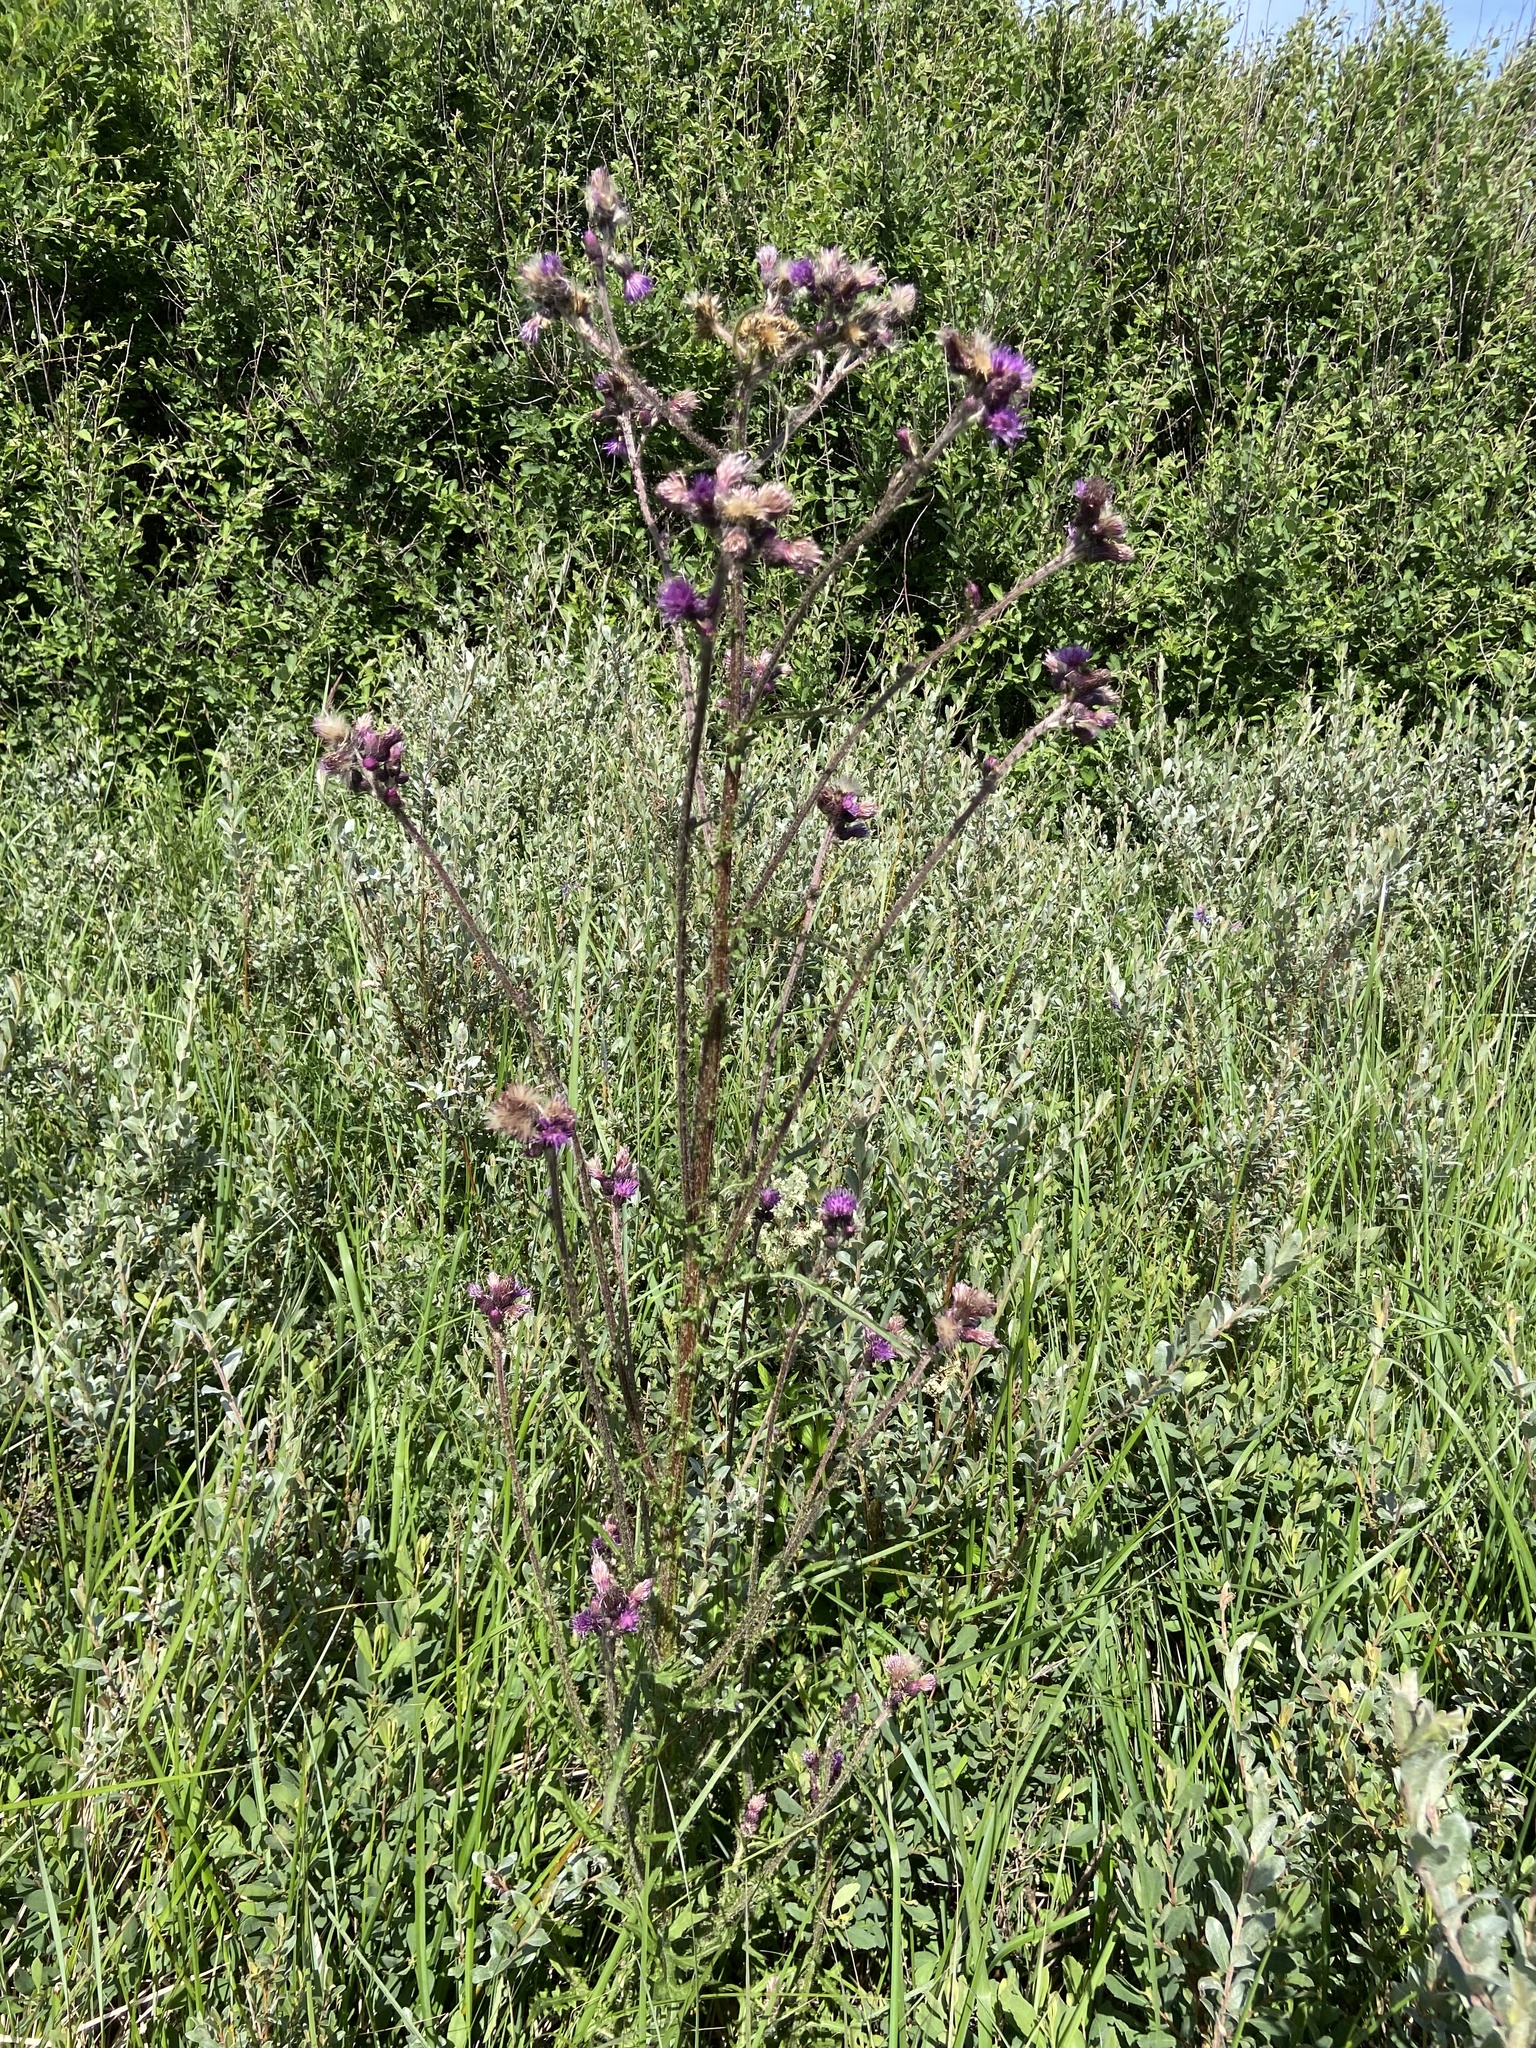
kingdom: Plantae
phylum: Tracheophyta
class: Magnoliopsida
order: Asterales
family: Asteraceae
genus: Cirsium
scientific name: Cirsium palustre
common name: Marsh thistle
